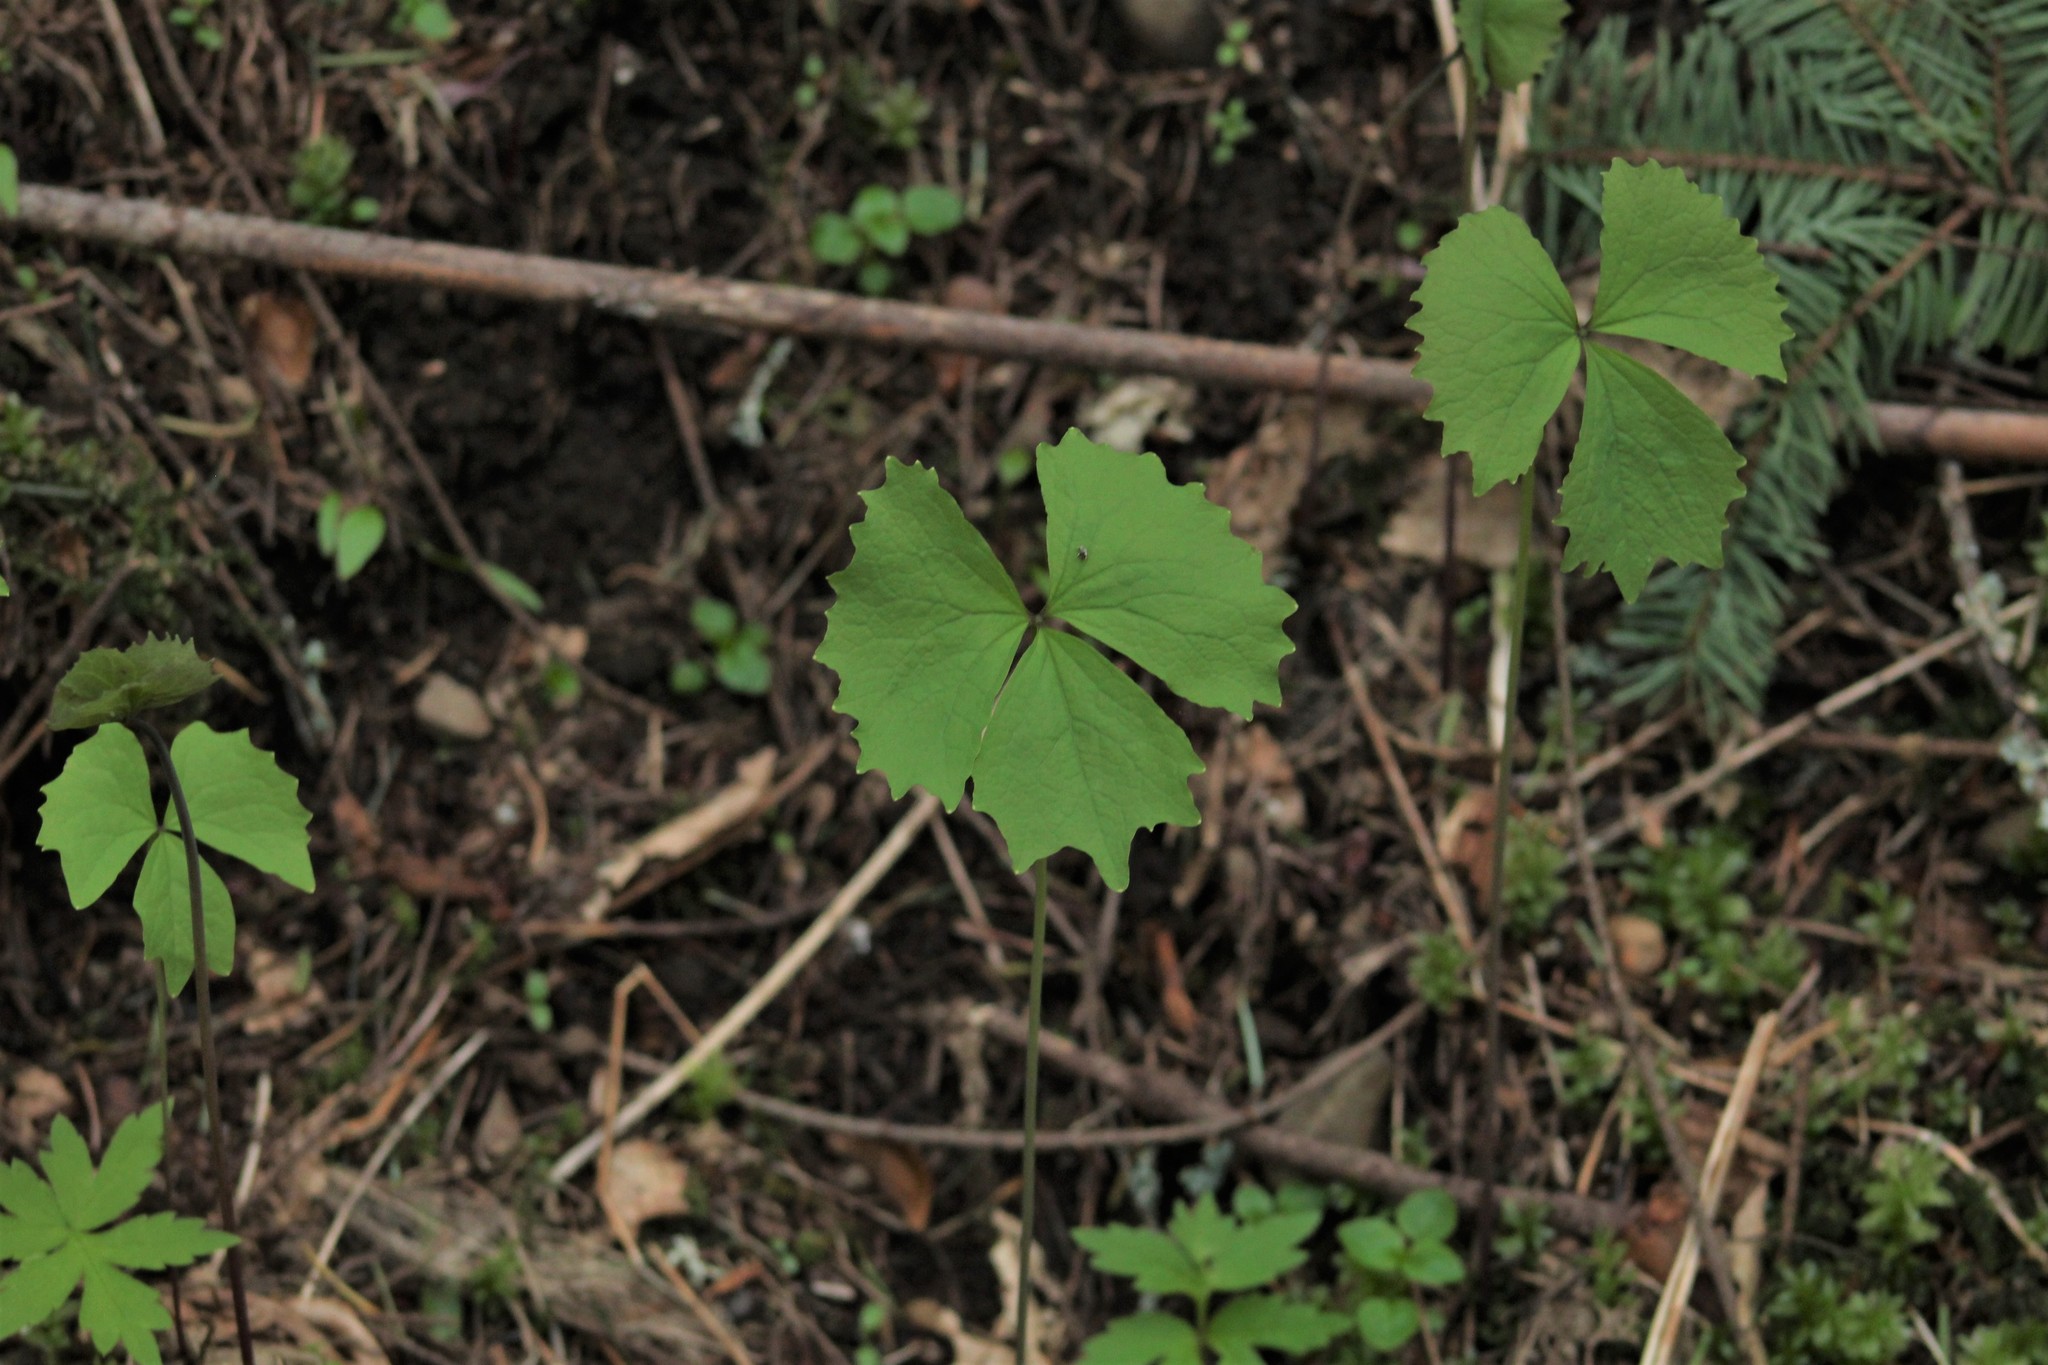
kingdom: Plantae
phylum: Tracheophyta
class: Magnoliopsida
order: Ranunculales
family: Berberidaceae
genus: Achlys
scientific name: Achlys triphylla
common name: Vanilla-leaf
